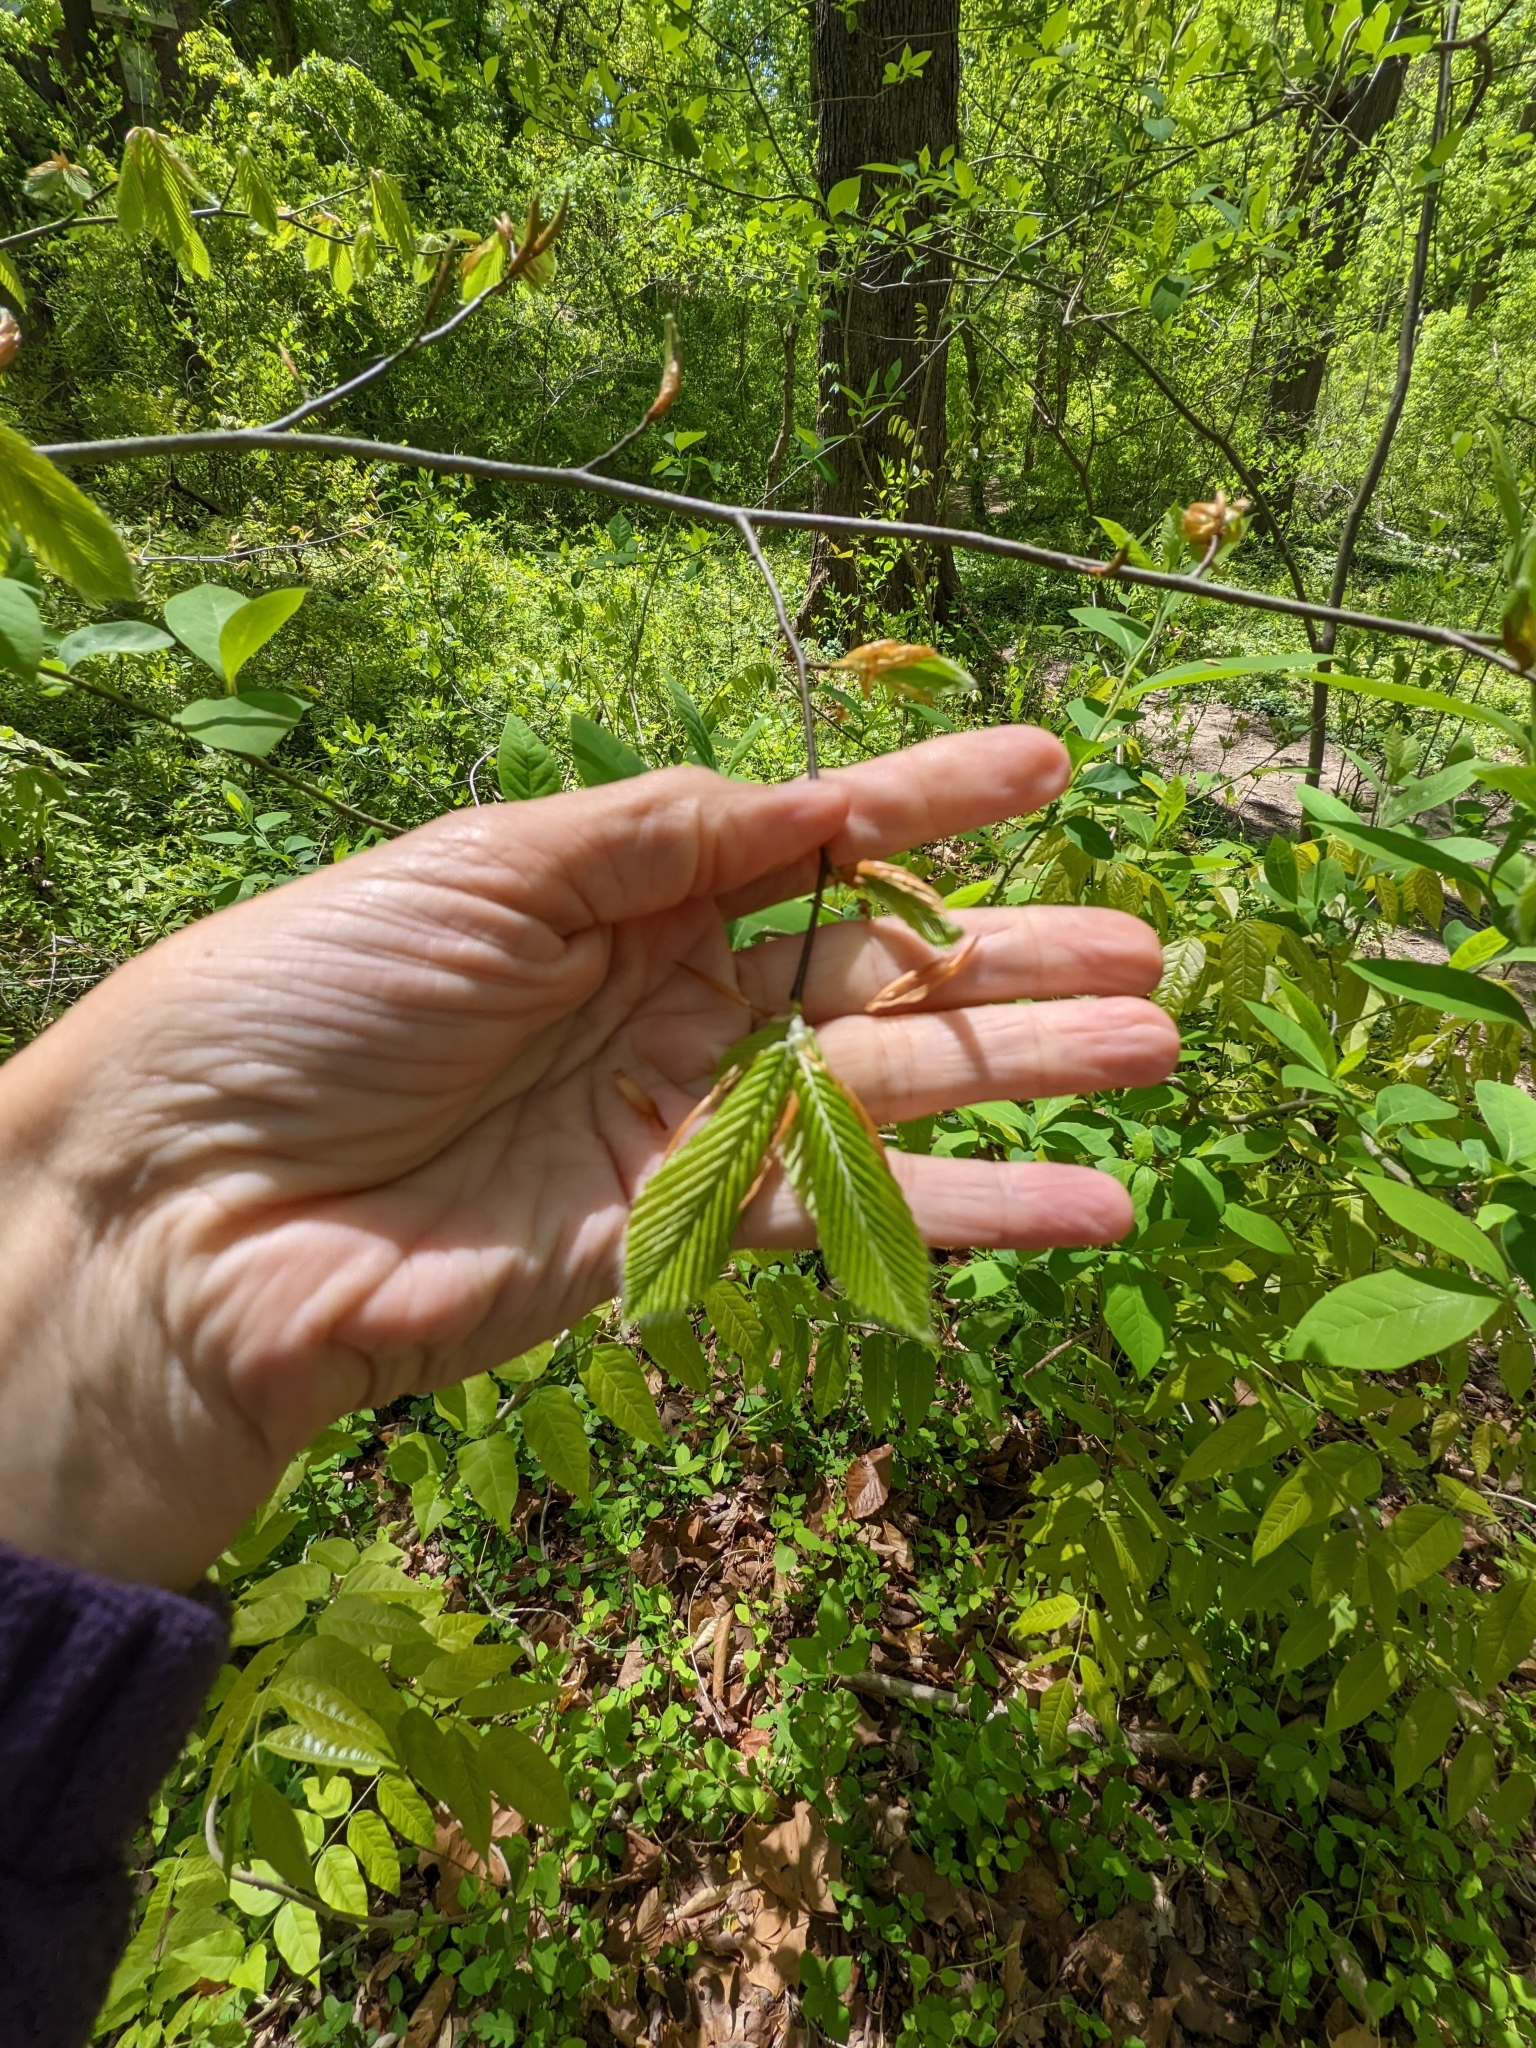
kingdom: Plantae
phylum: Tracheophyta
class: Magnoliopsida
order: Fagales
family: Fagaceae
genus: Fagus
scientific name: Fagus grandifolia
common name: American beech
